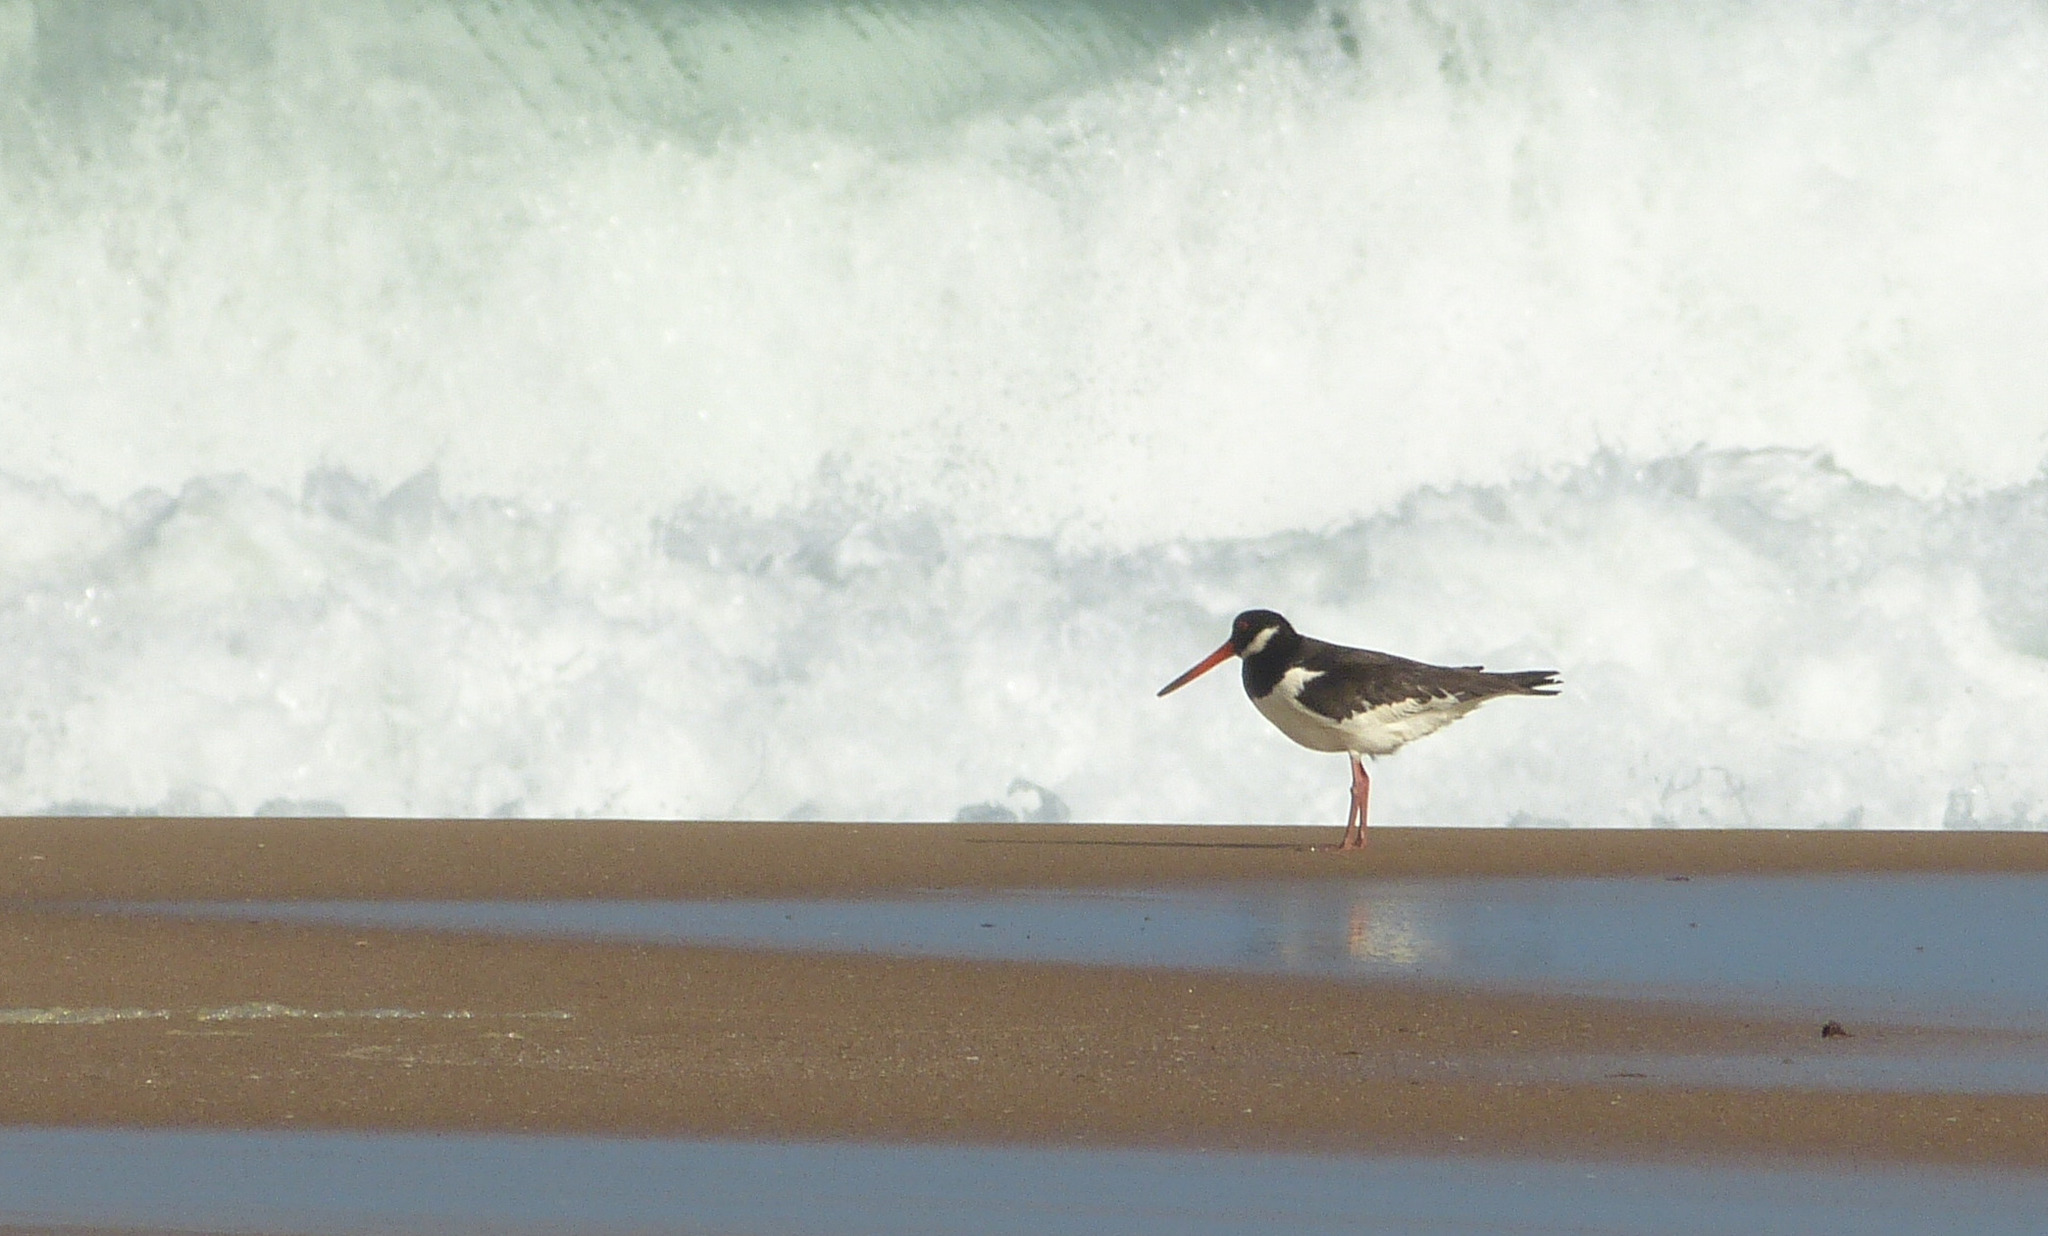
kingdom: Animalia
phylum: Chordata
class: Aves
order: Charadriiformes
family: Haematopodidae
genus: Haematopus
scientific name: Haematopus ostralegus
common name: Eurasian oystercatcher
